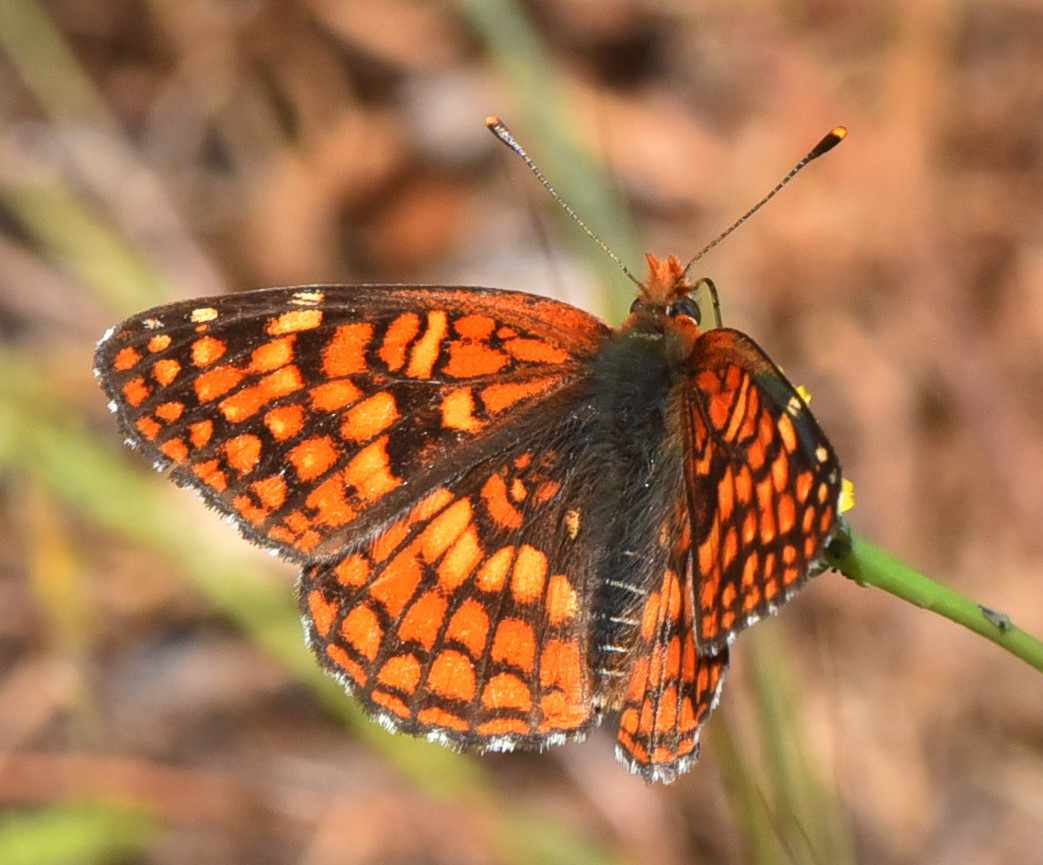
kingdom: Animalia
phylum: Arthropoda
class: Insecta
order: Lepidoptera
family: Nymphalidae
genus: Chlosyne
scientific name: Chlosyne palla
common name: Northern checkerspot
